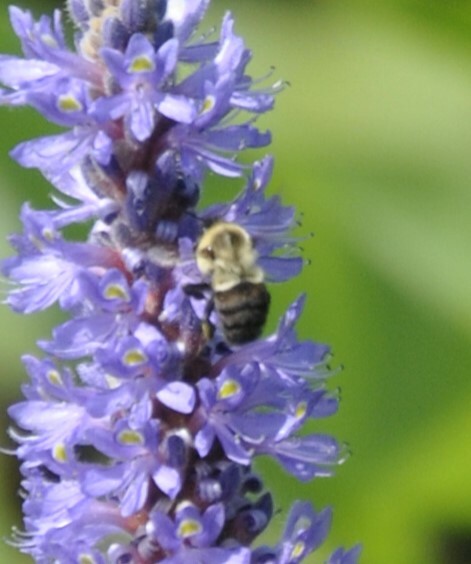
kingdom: Animalia
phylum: Arthropoda
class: Insecta
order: Hymenoptera
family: Apidae
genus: Bombus
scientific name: Bombus impatiens
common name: Common eastern bumble bee
